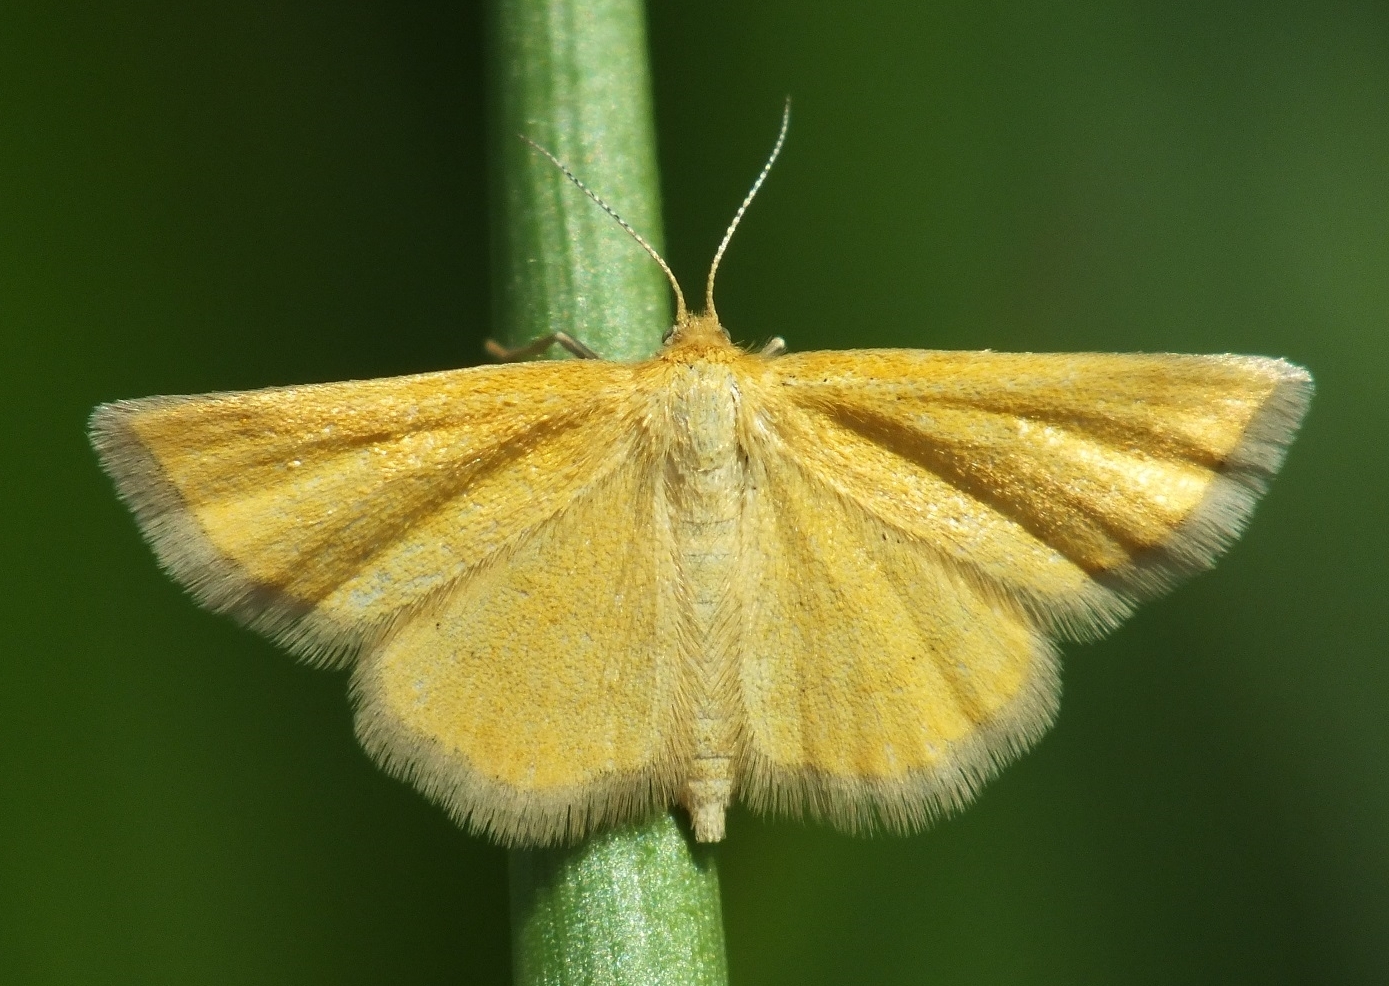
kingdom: Animalia
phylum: Arthropoda
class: Insecta
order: Lepidoptera
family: Geometridae
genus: Cleta
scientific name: Cleta filacearia
